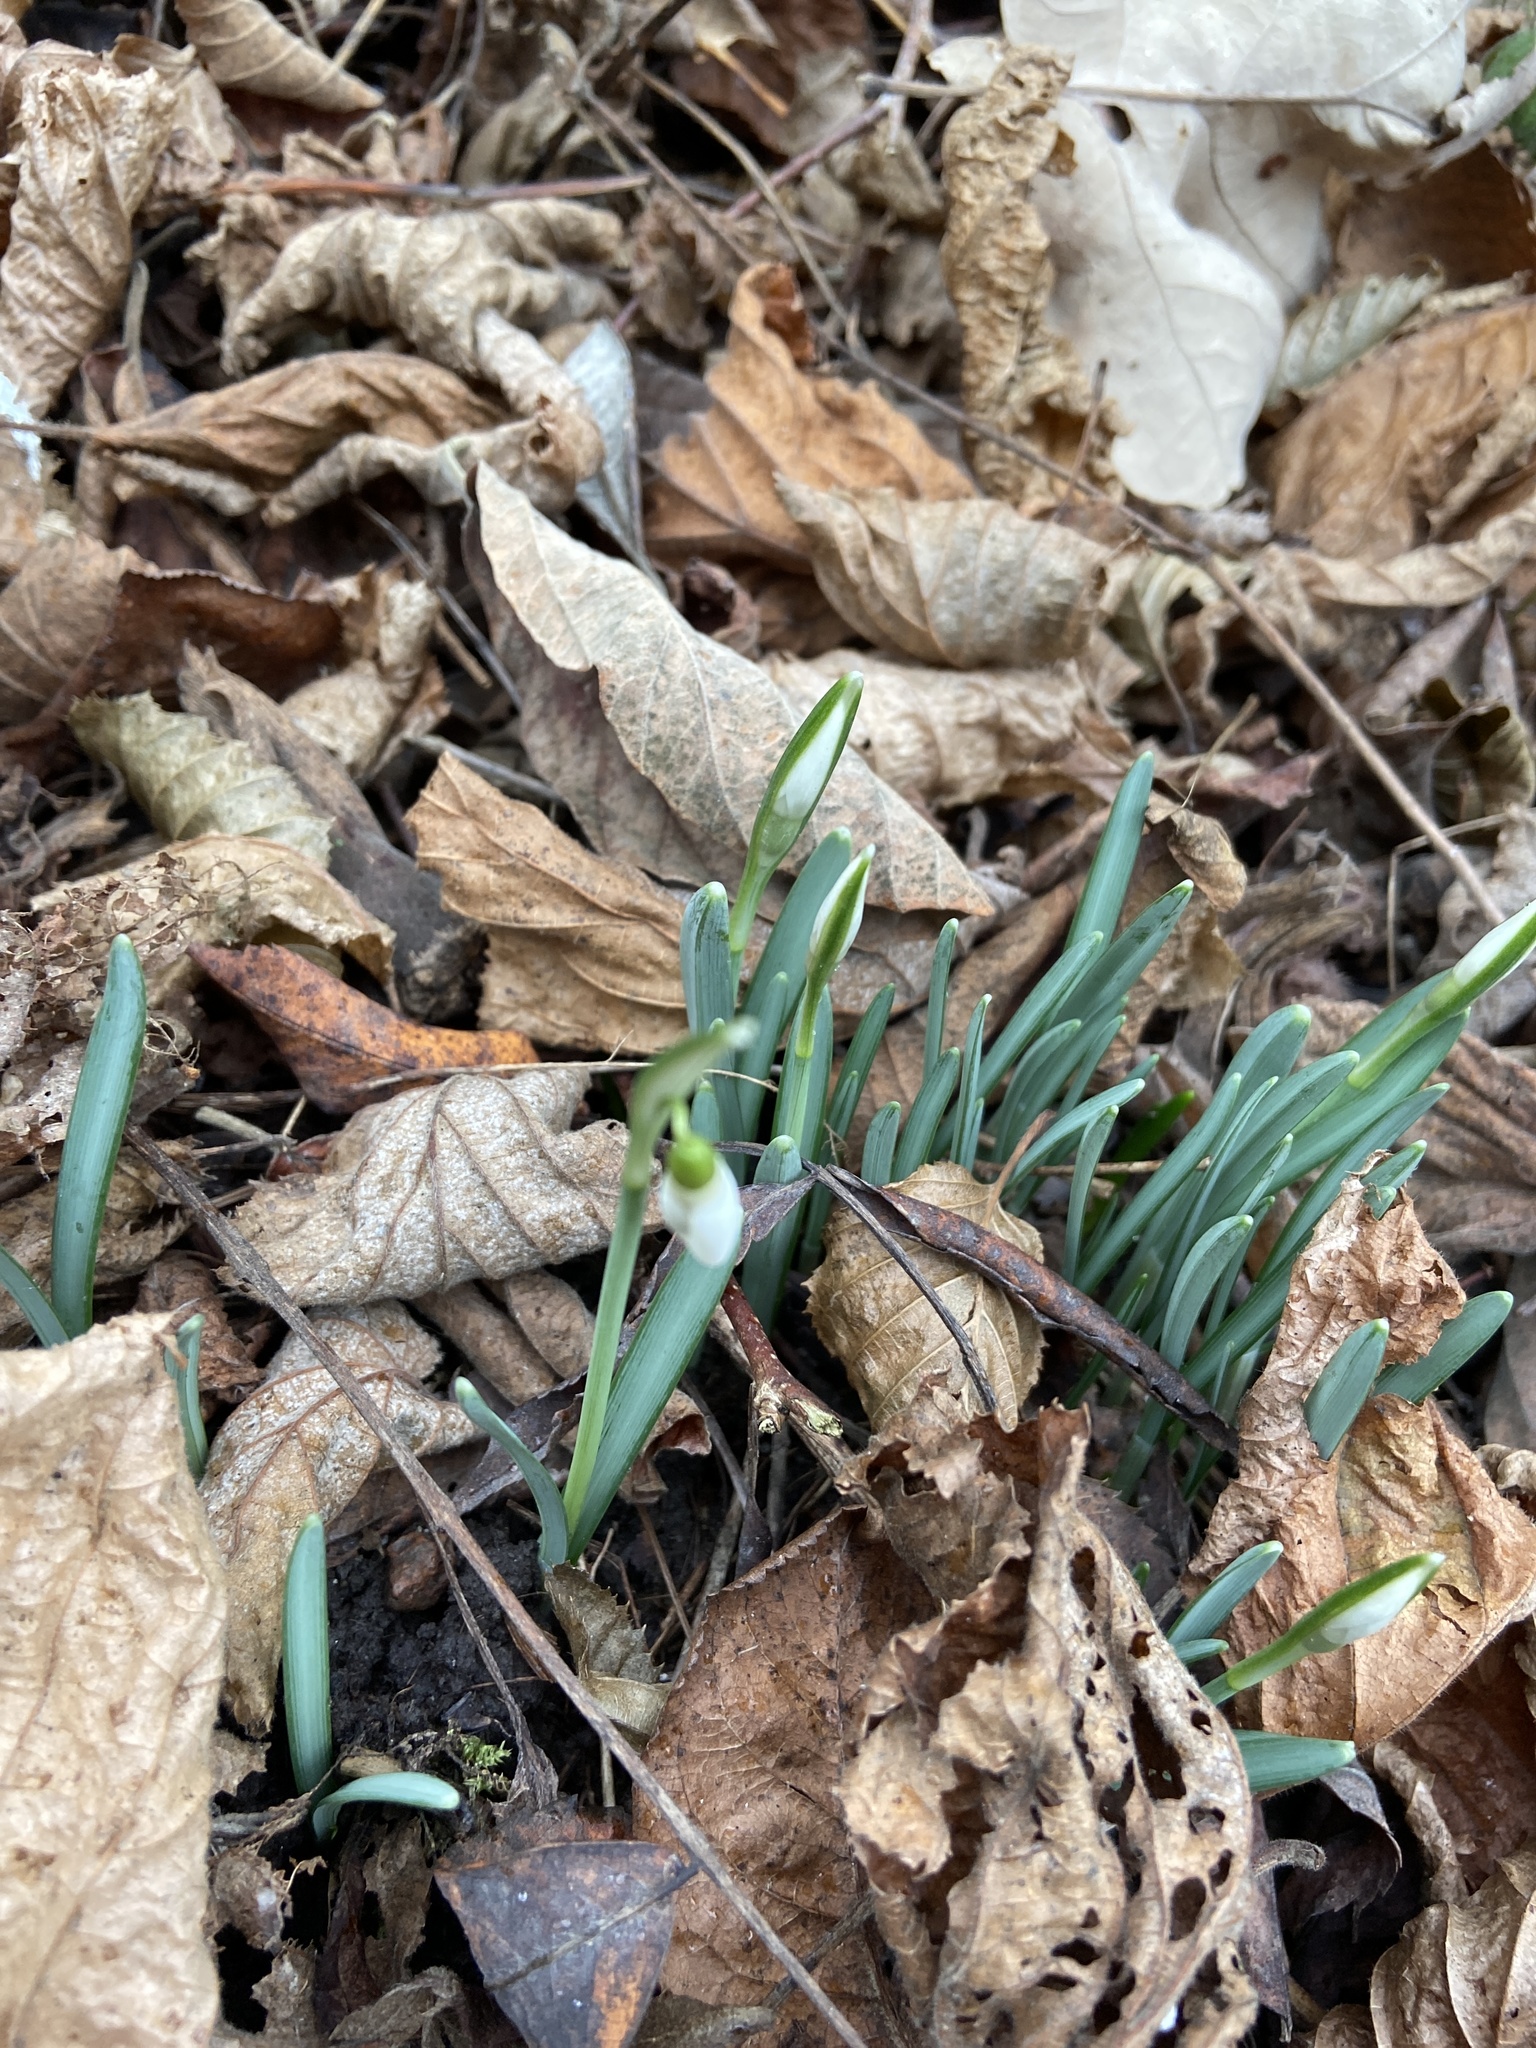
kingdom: Plantae
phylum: Tracheophyta
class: Liliopsida
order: Asparagales
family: Amaryllidaceae
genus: Galanthus
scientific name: Galanthus nivalis
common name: Snowdrop
